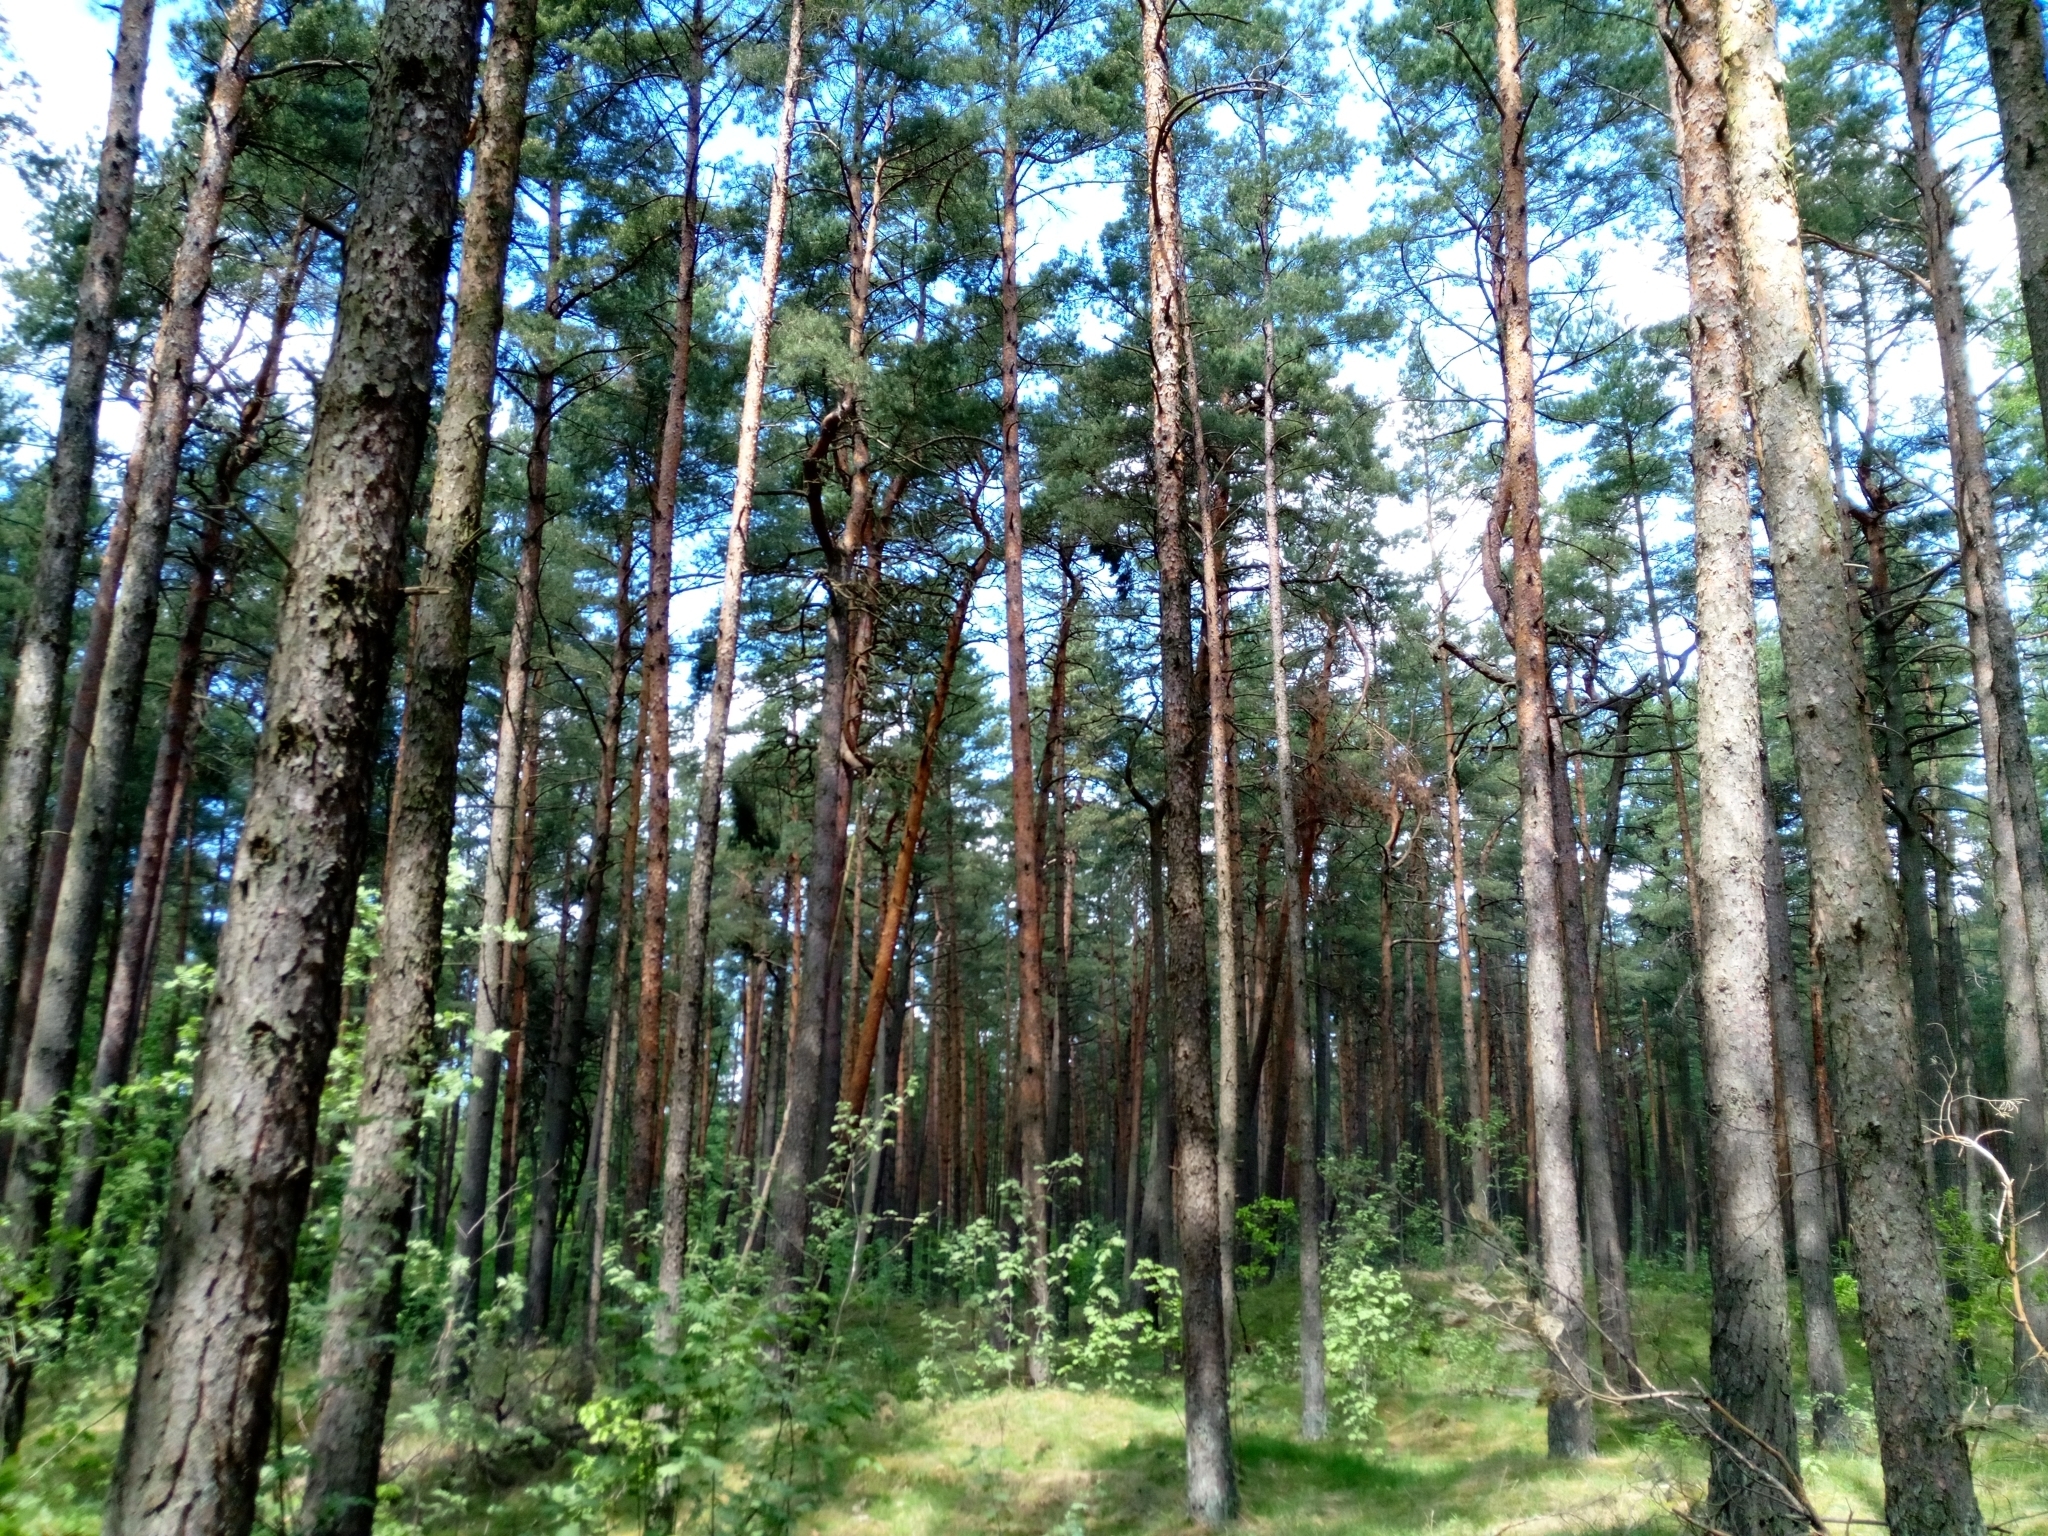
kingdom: Plantae
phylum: Tracheophyta
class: Pinopsida
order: Pinales
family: Pinaceae
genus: Pinus
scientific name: Pinus sylvestris
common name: Scots pine
